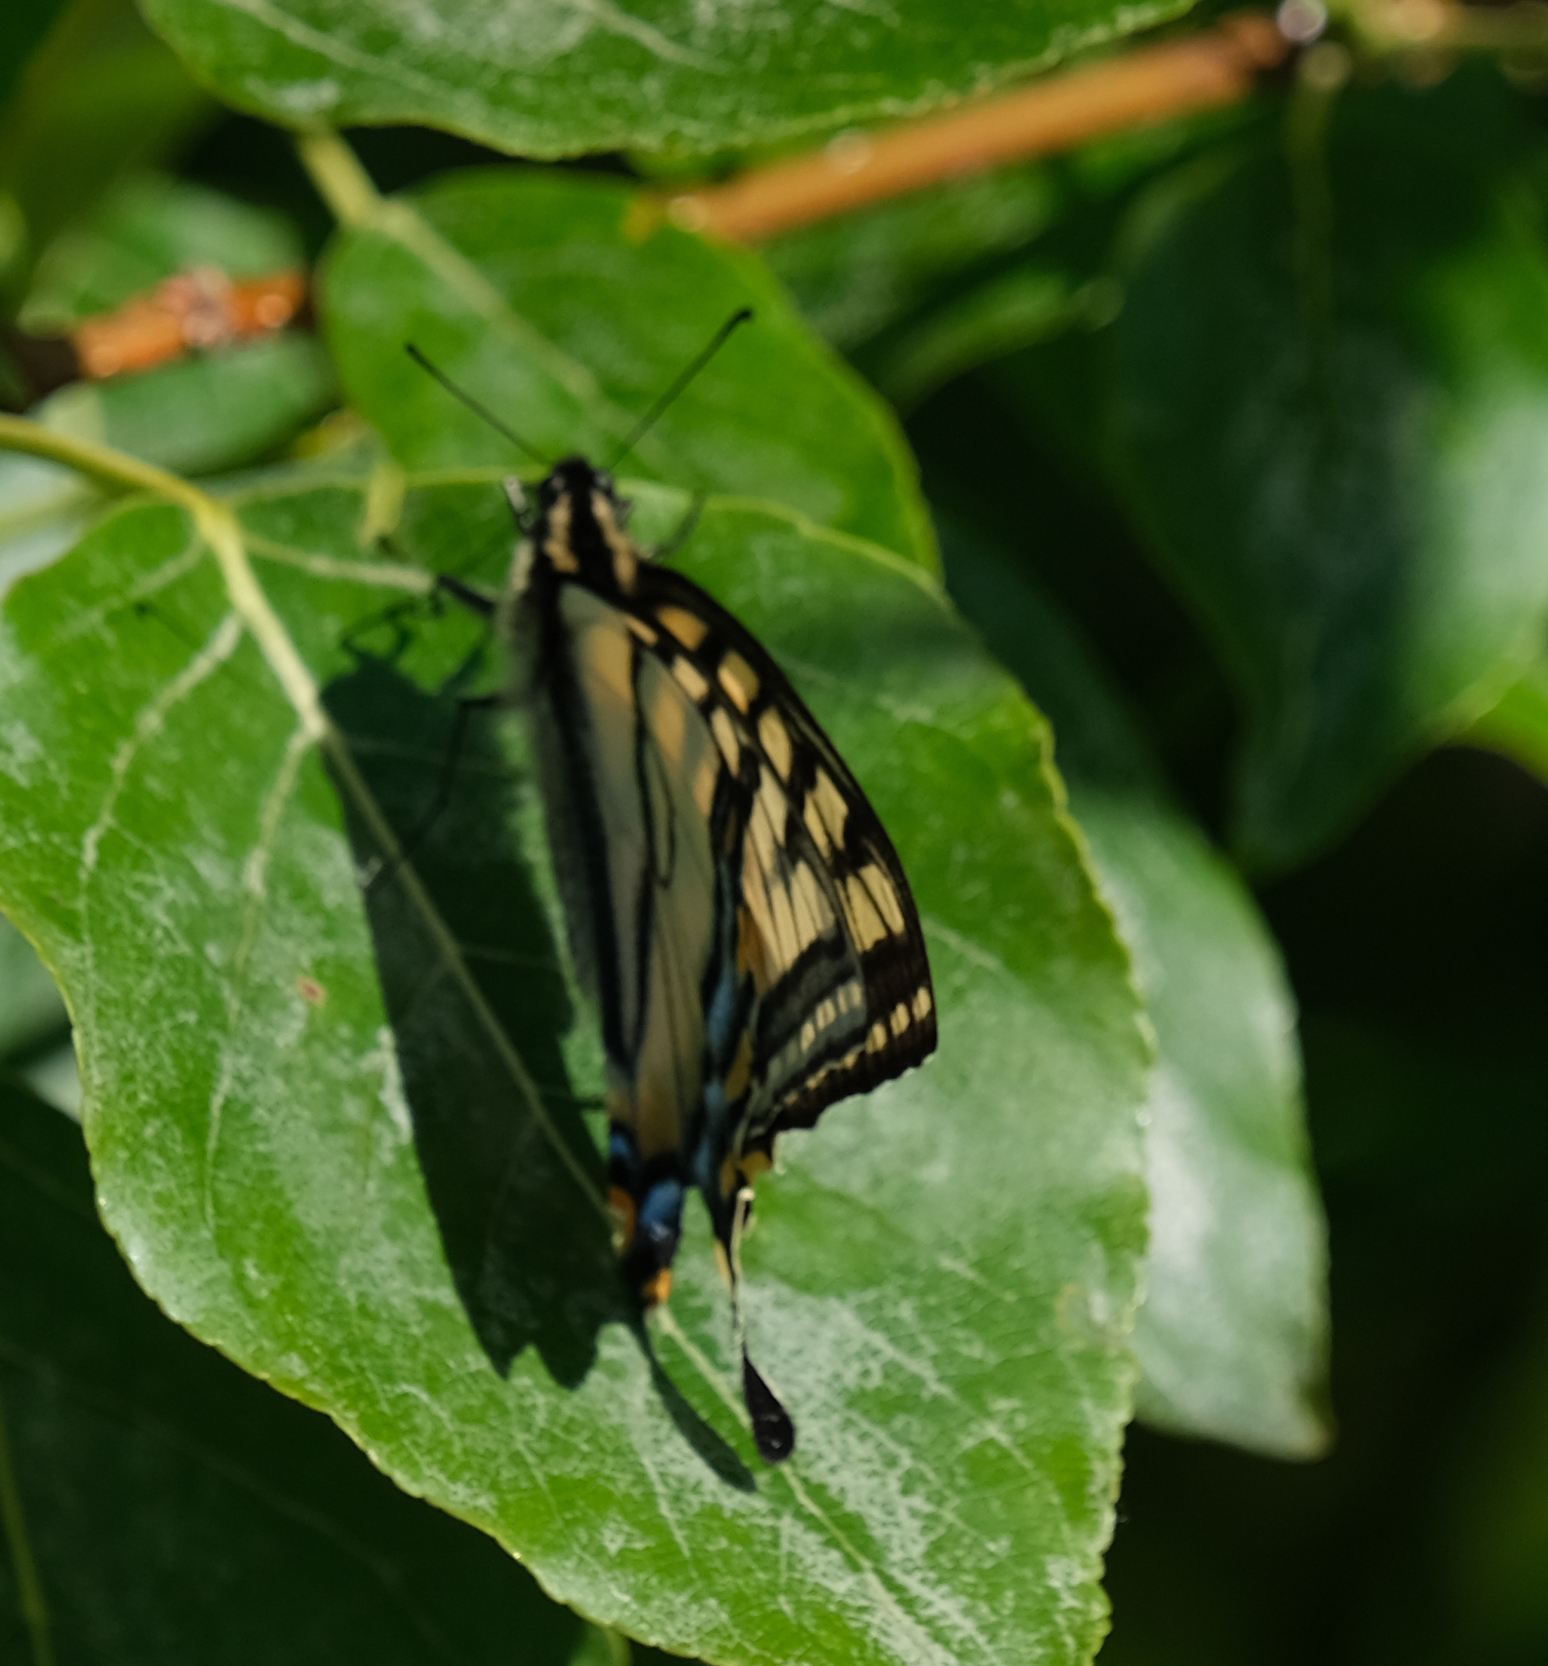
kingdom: Animalia
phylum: Arthropoda
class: Insecta
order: Lepidoptera
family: Papilionidae
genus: Papilio
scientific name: Papilio canadensis
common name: Canadian tiger swallowtail
